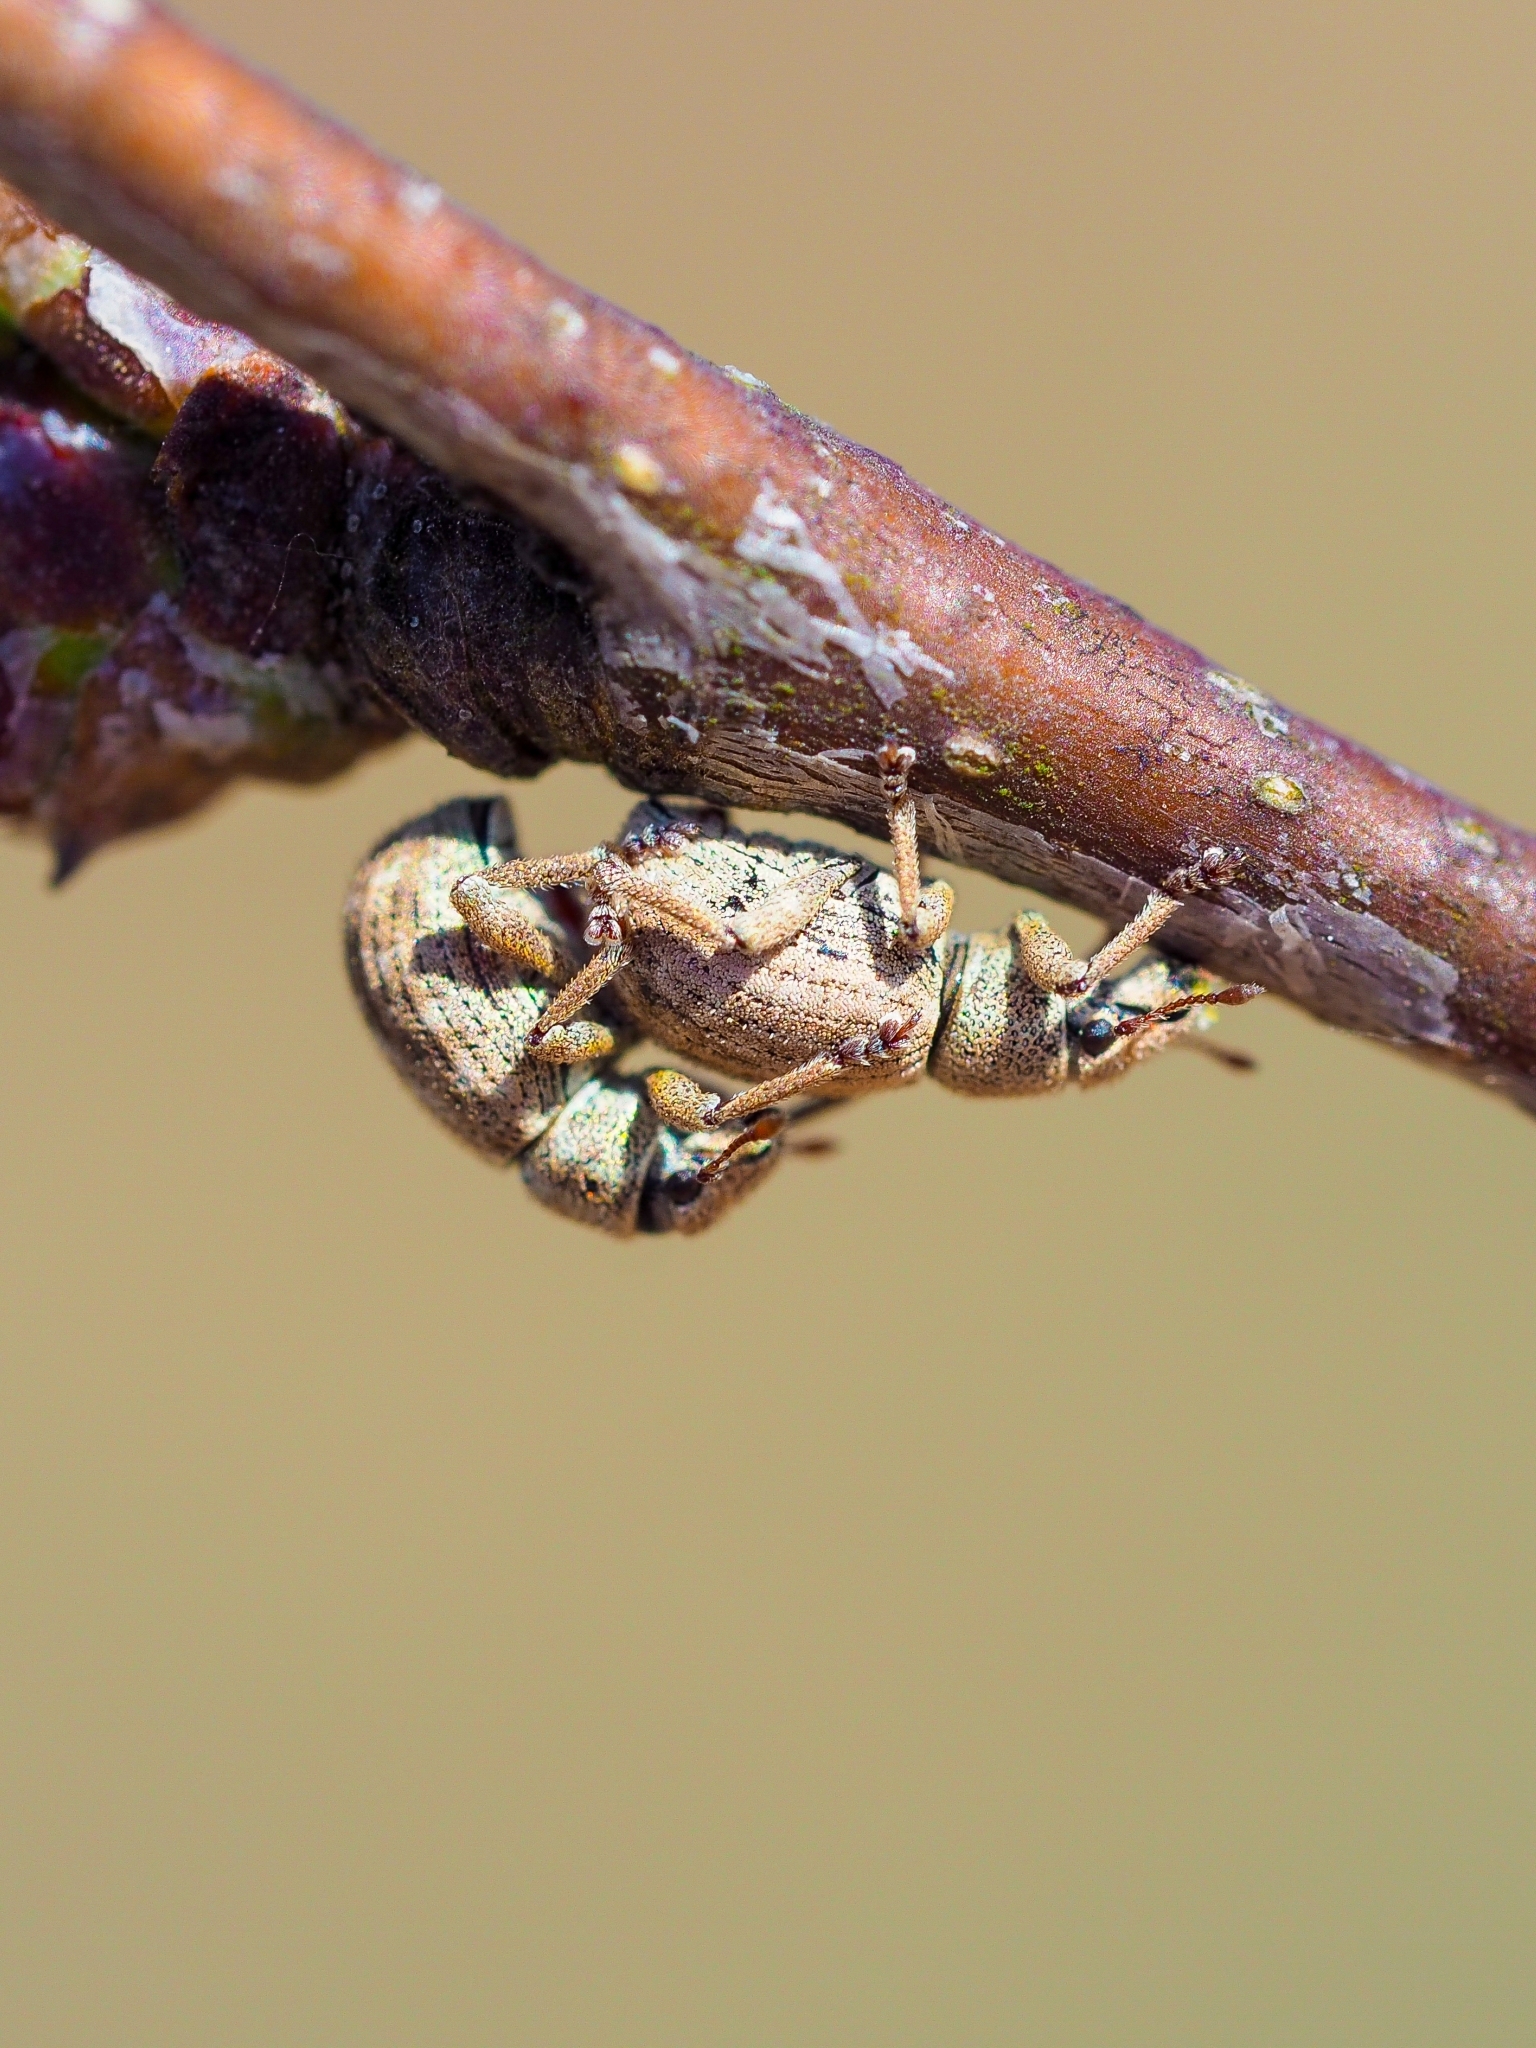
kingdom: Animalia
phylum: Arthropoda
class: Insecta
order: Coleoptera
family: Curculionidae
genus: Strophosoma
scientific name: Strophosoma capitatum
